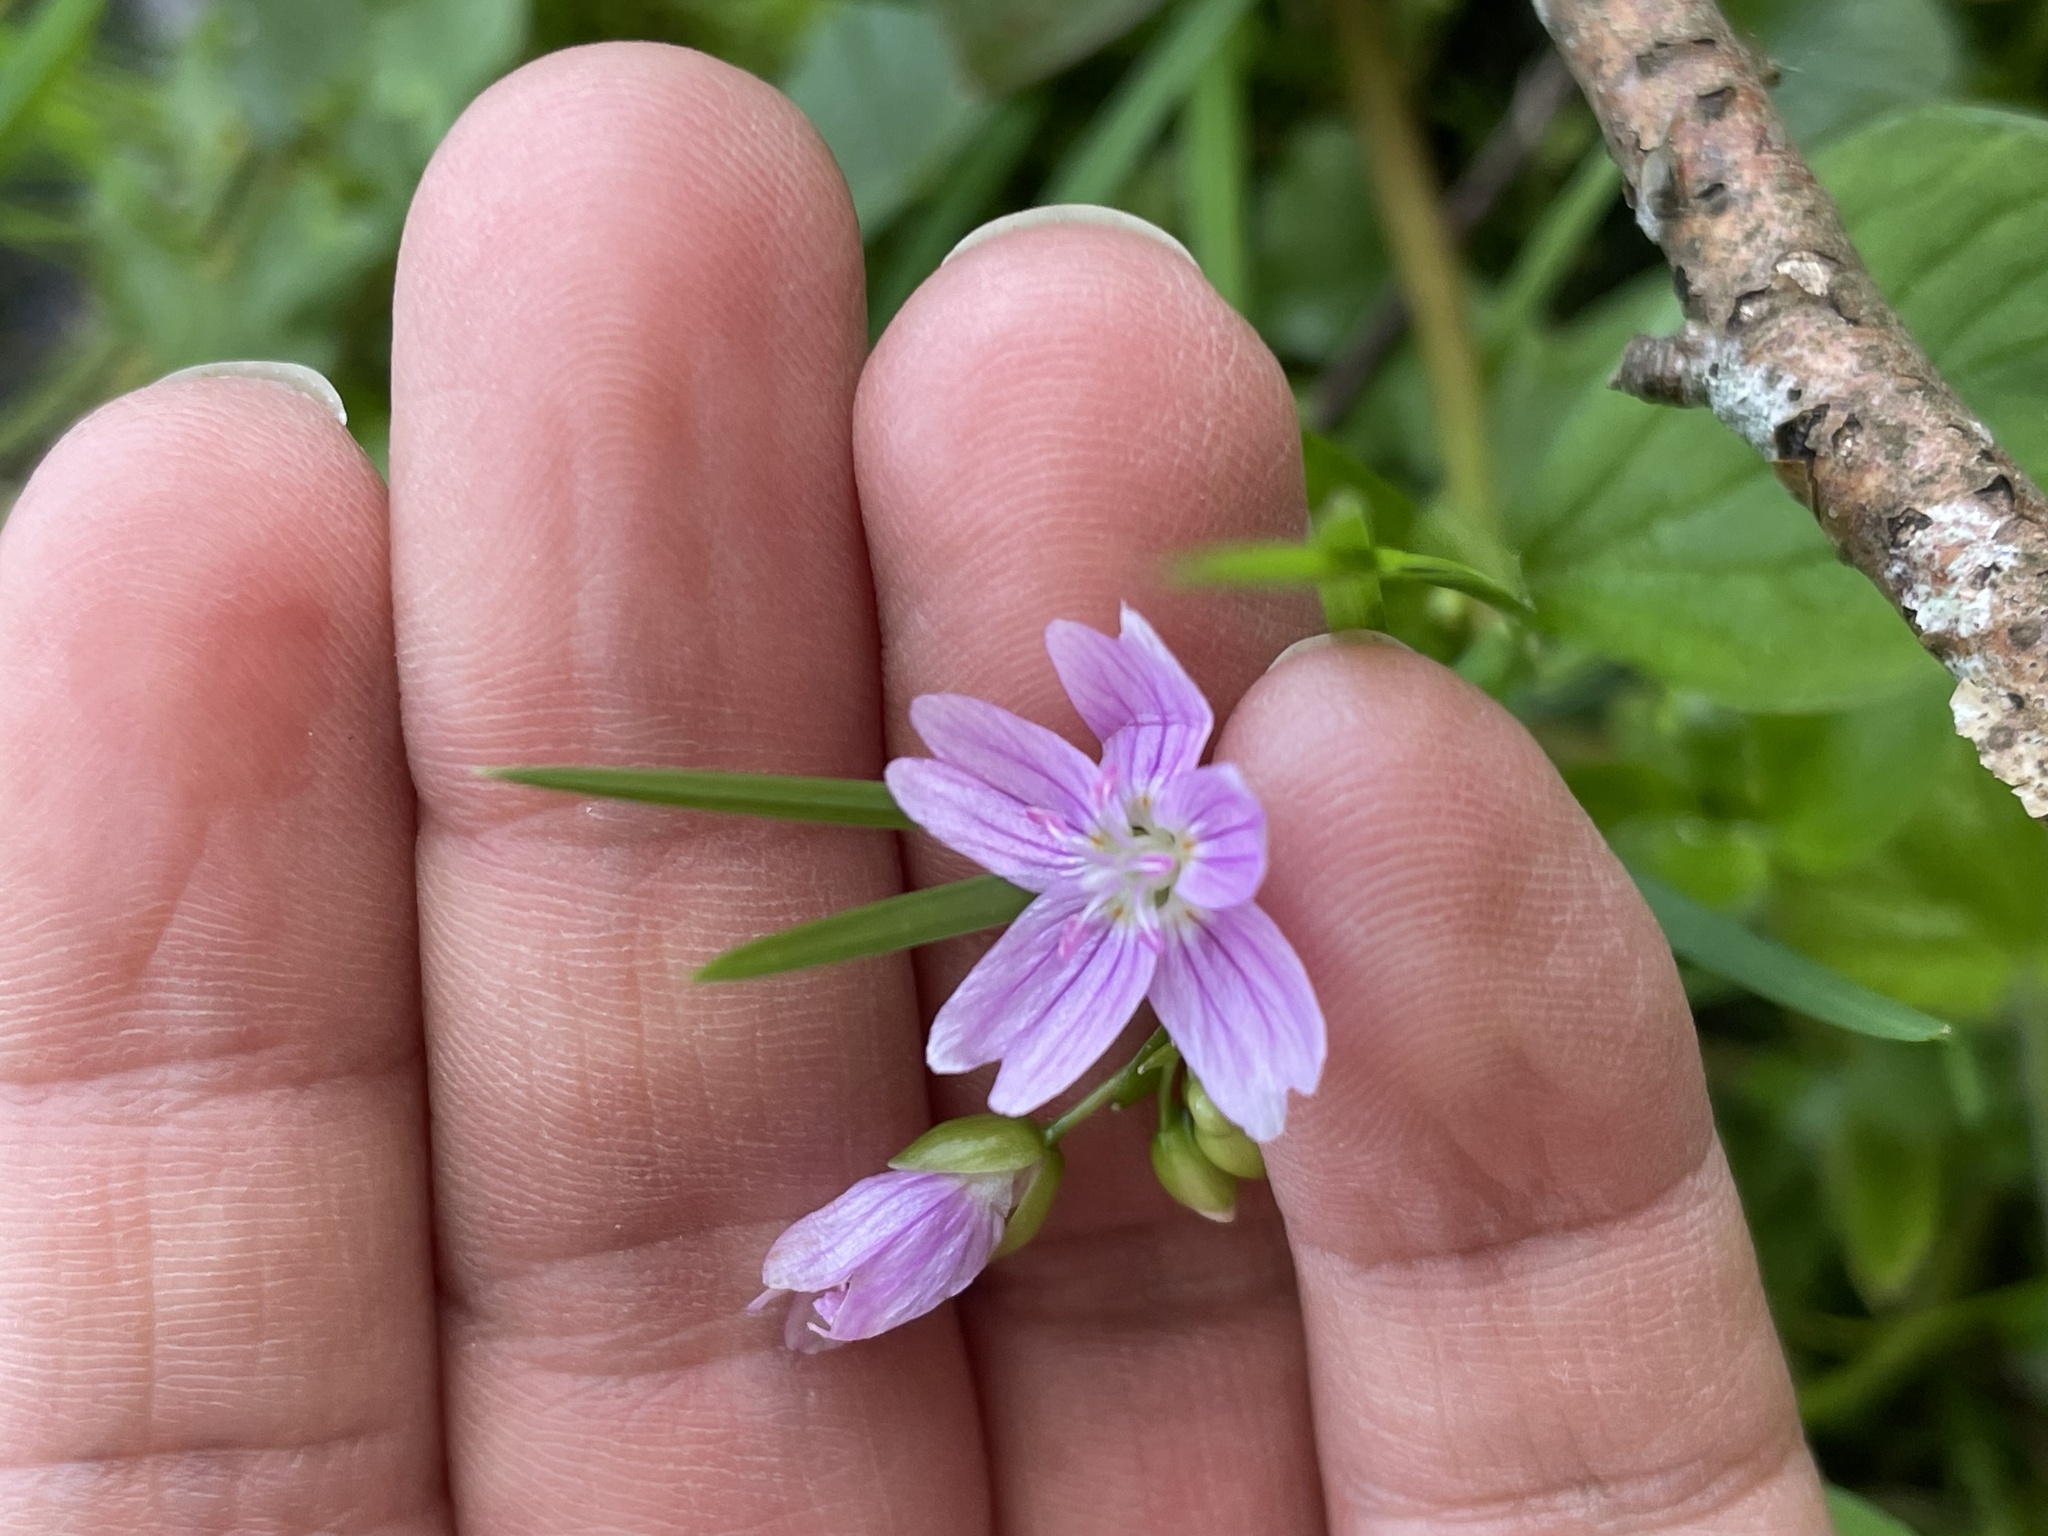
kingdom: Plantae
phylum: Tracheophyta
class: Magnoliopsida
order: Caryophyllales
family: Montiaceae
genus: Claytonia
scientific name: Claytonia sibirica
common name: Pink purslane
